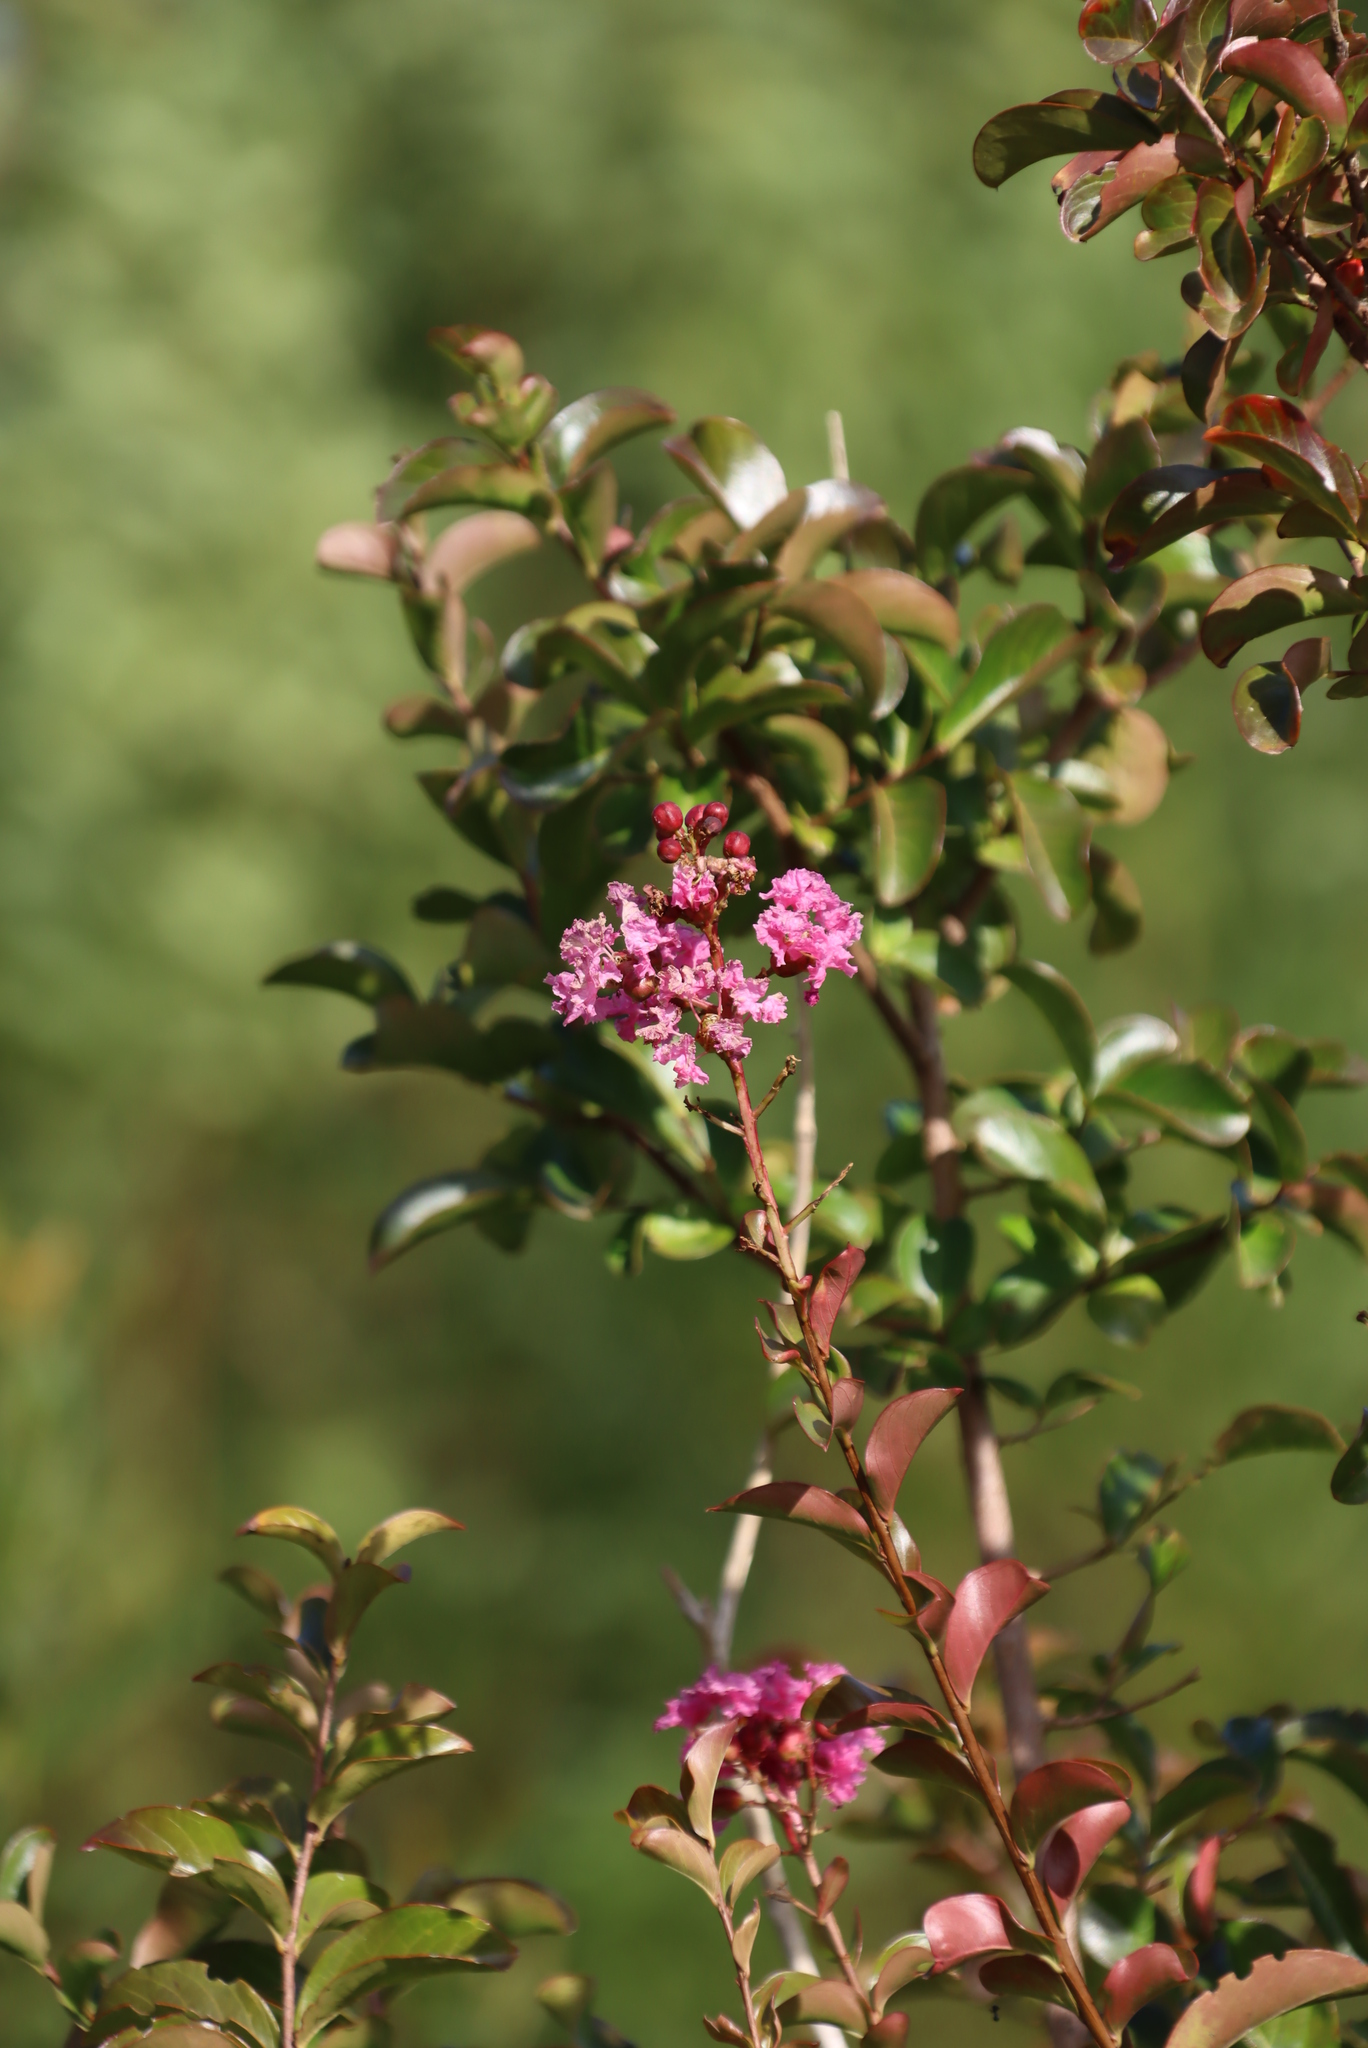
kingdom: Plantae
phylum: Tracheophyta
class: Magnoliopsida
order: Myrtales
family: Lythraceae
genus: Lagerstroemia
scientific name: Lagerstroemia indica
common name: Crape-myrtle
